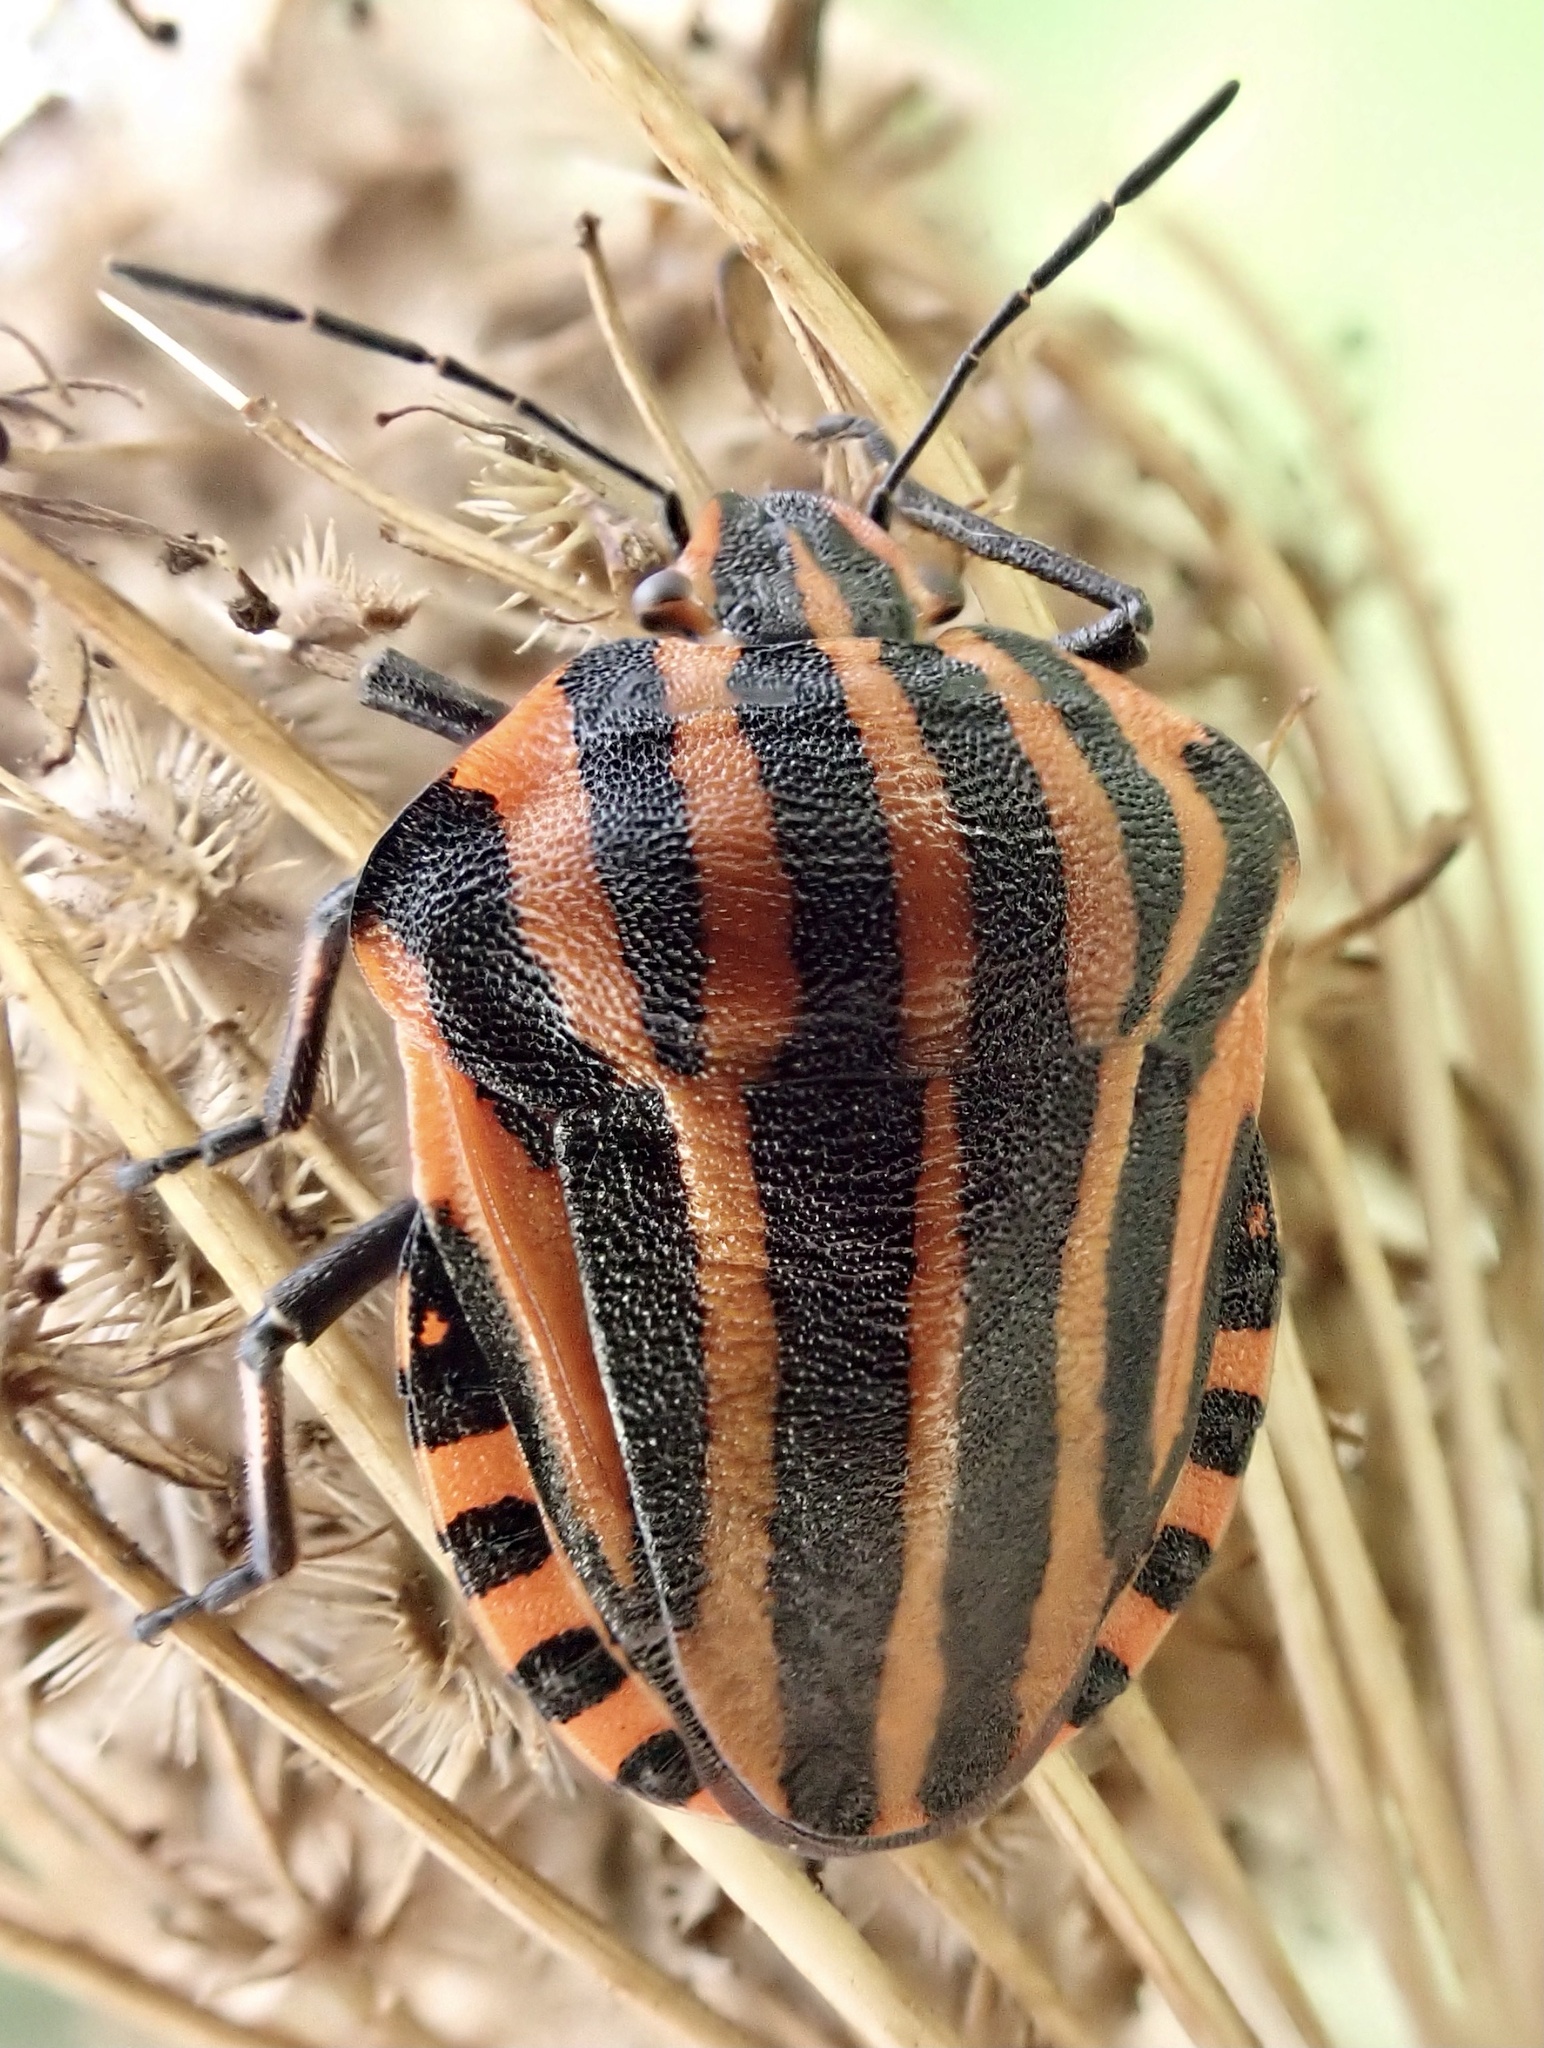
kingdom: Animalia
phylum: Arthropoda
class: Insecta
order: Hemiptera
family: Pentatomidae
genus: Graphosoma
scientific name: Graphosoma italicum
